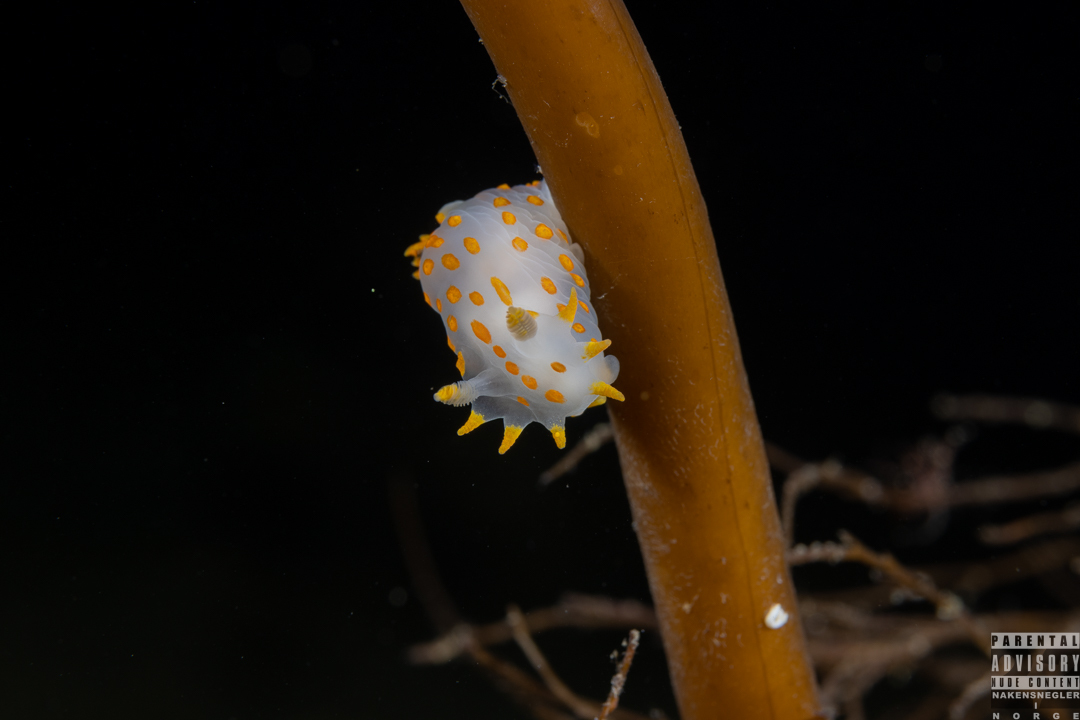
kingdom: Animalia
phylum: Mollusca
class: Gastropoda
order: Nudibranchia
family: Polyceridae
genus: Polycera
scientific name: Polycera quadrilineata
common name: Four-striped polycera
